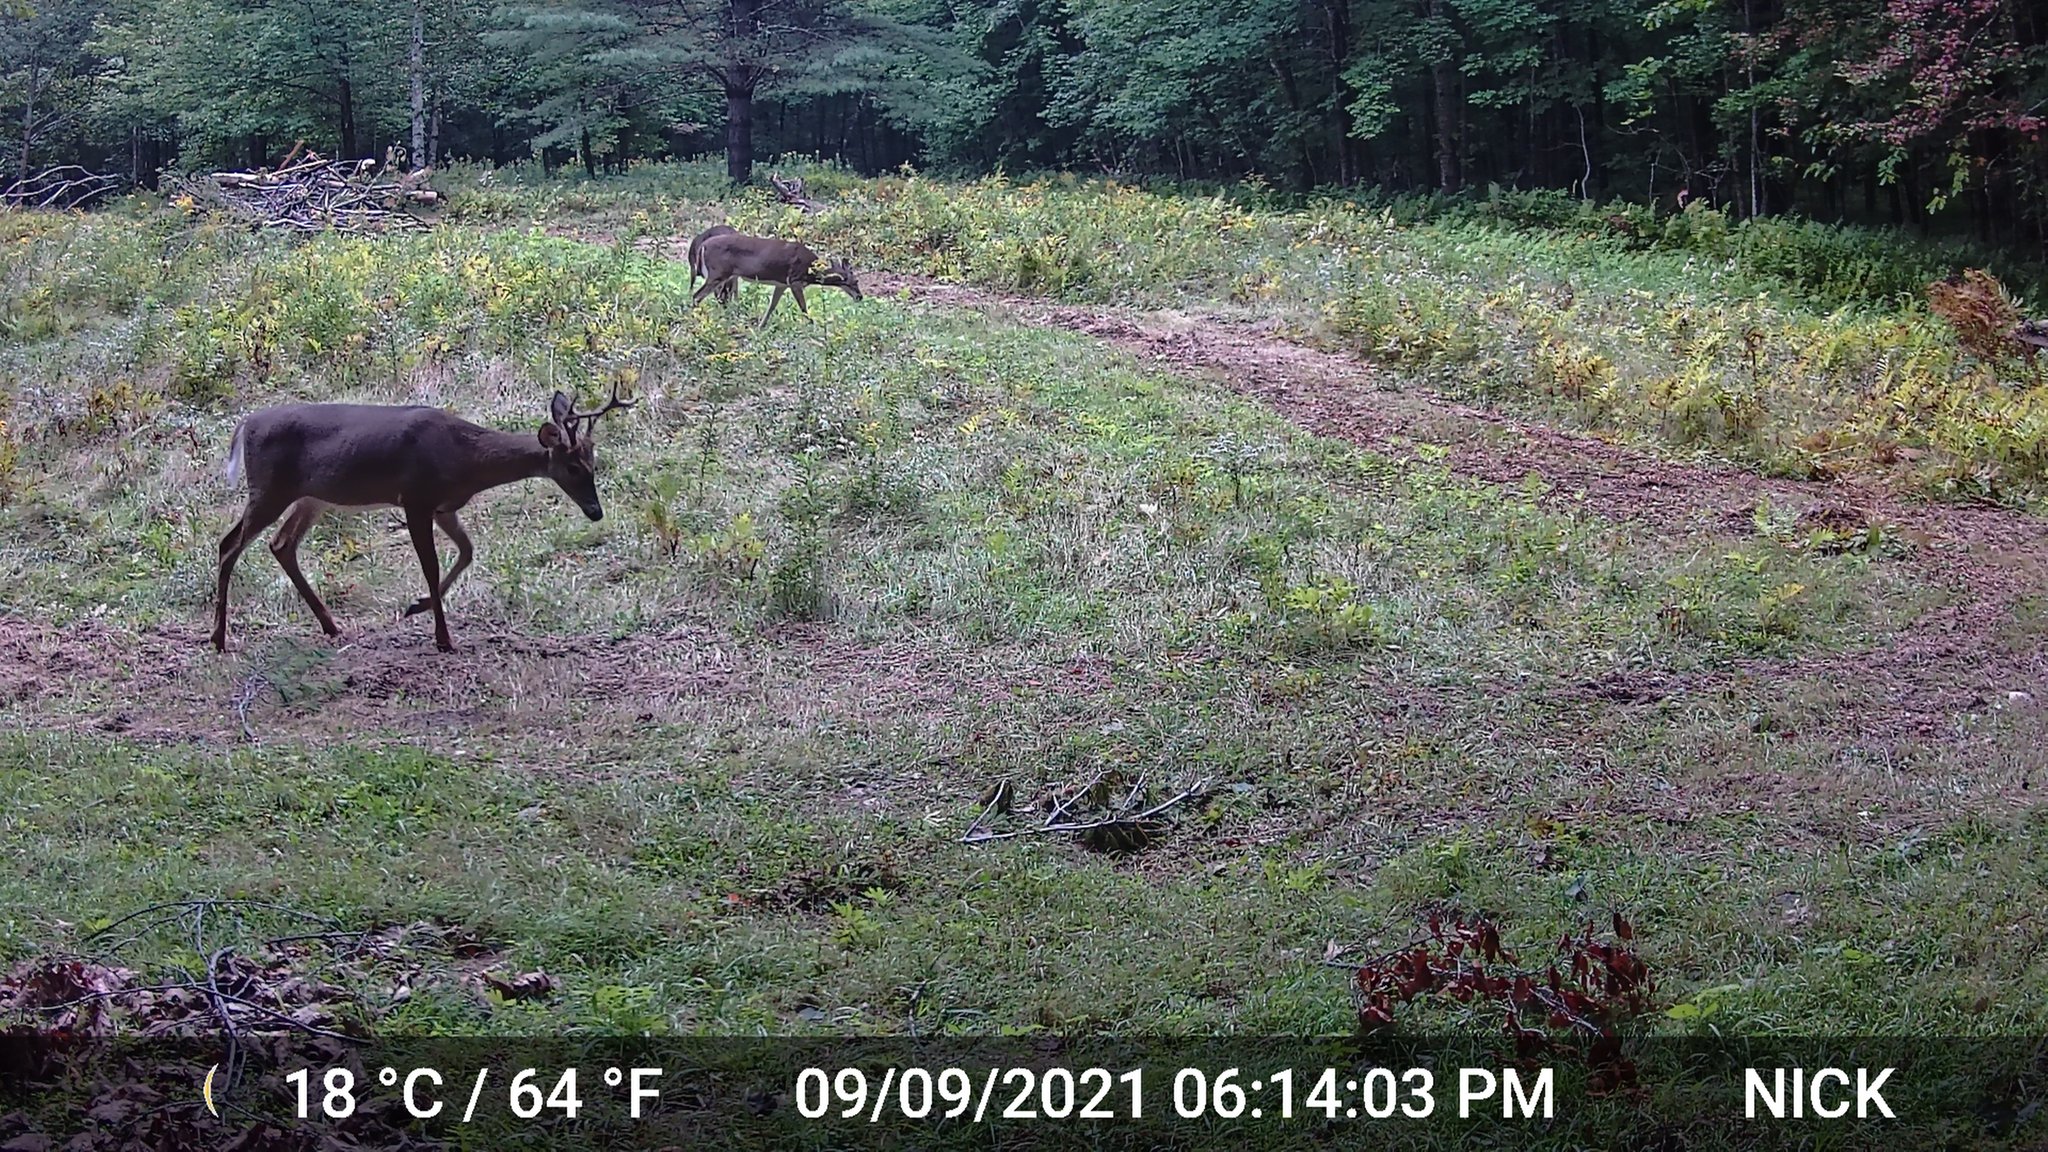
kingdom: Animalia
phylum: Chordata
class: Mammalia
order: Artiodactyla
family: Cervidae
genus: Odocoileus
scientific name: Odocoileus virginianus
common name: White-tailed deer
